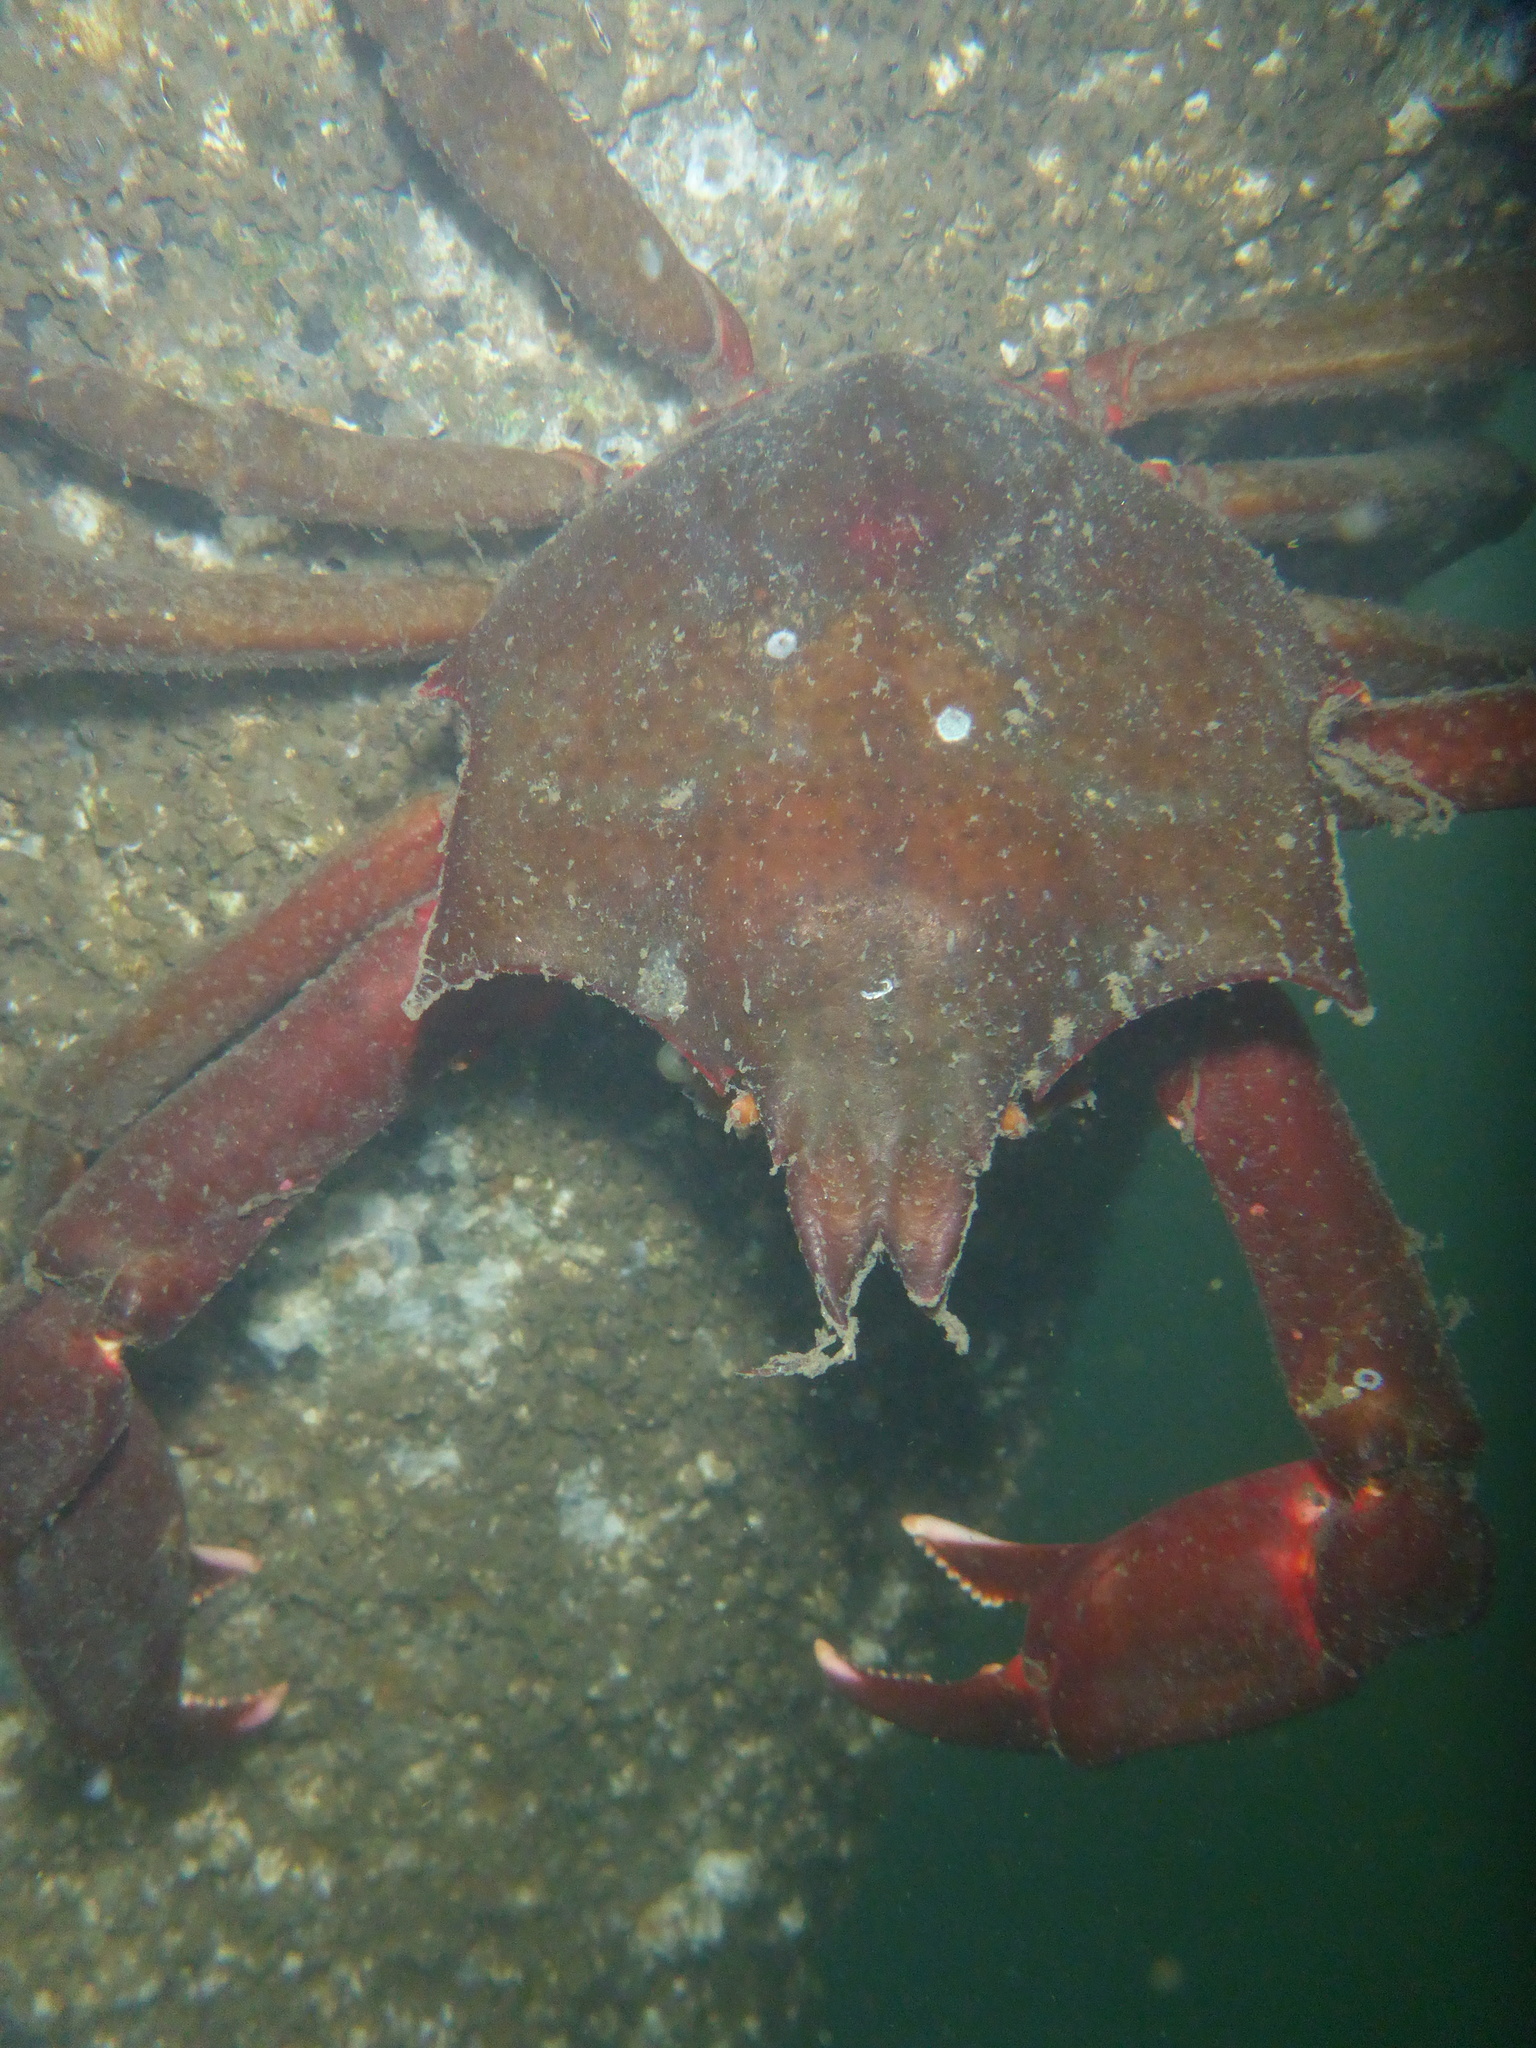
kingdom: Animalia
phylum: Arthropoda
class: Malacostraca
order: Decapoda
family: Epialtidae
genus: Pugettia
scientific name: Pugettia producta
